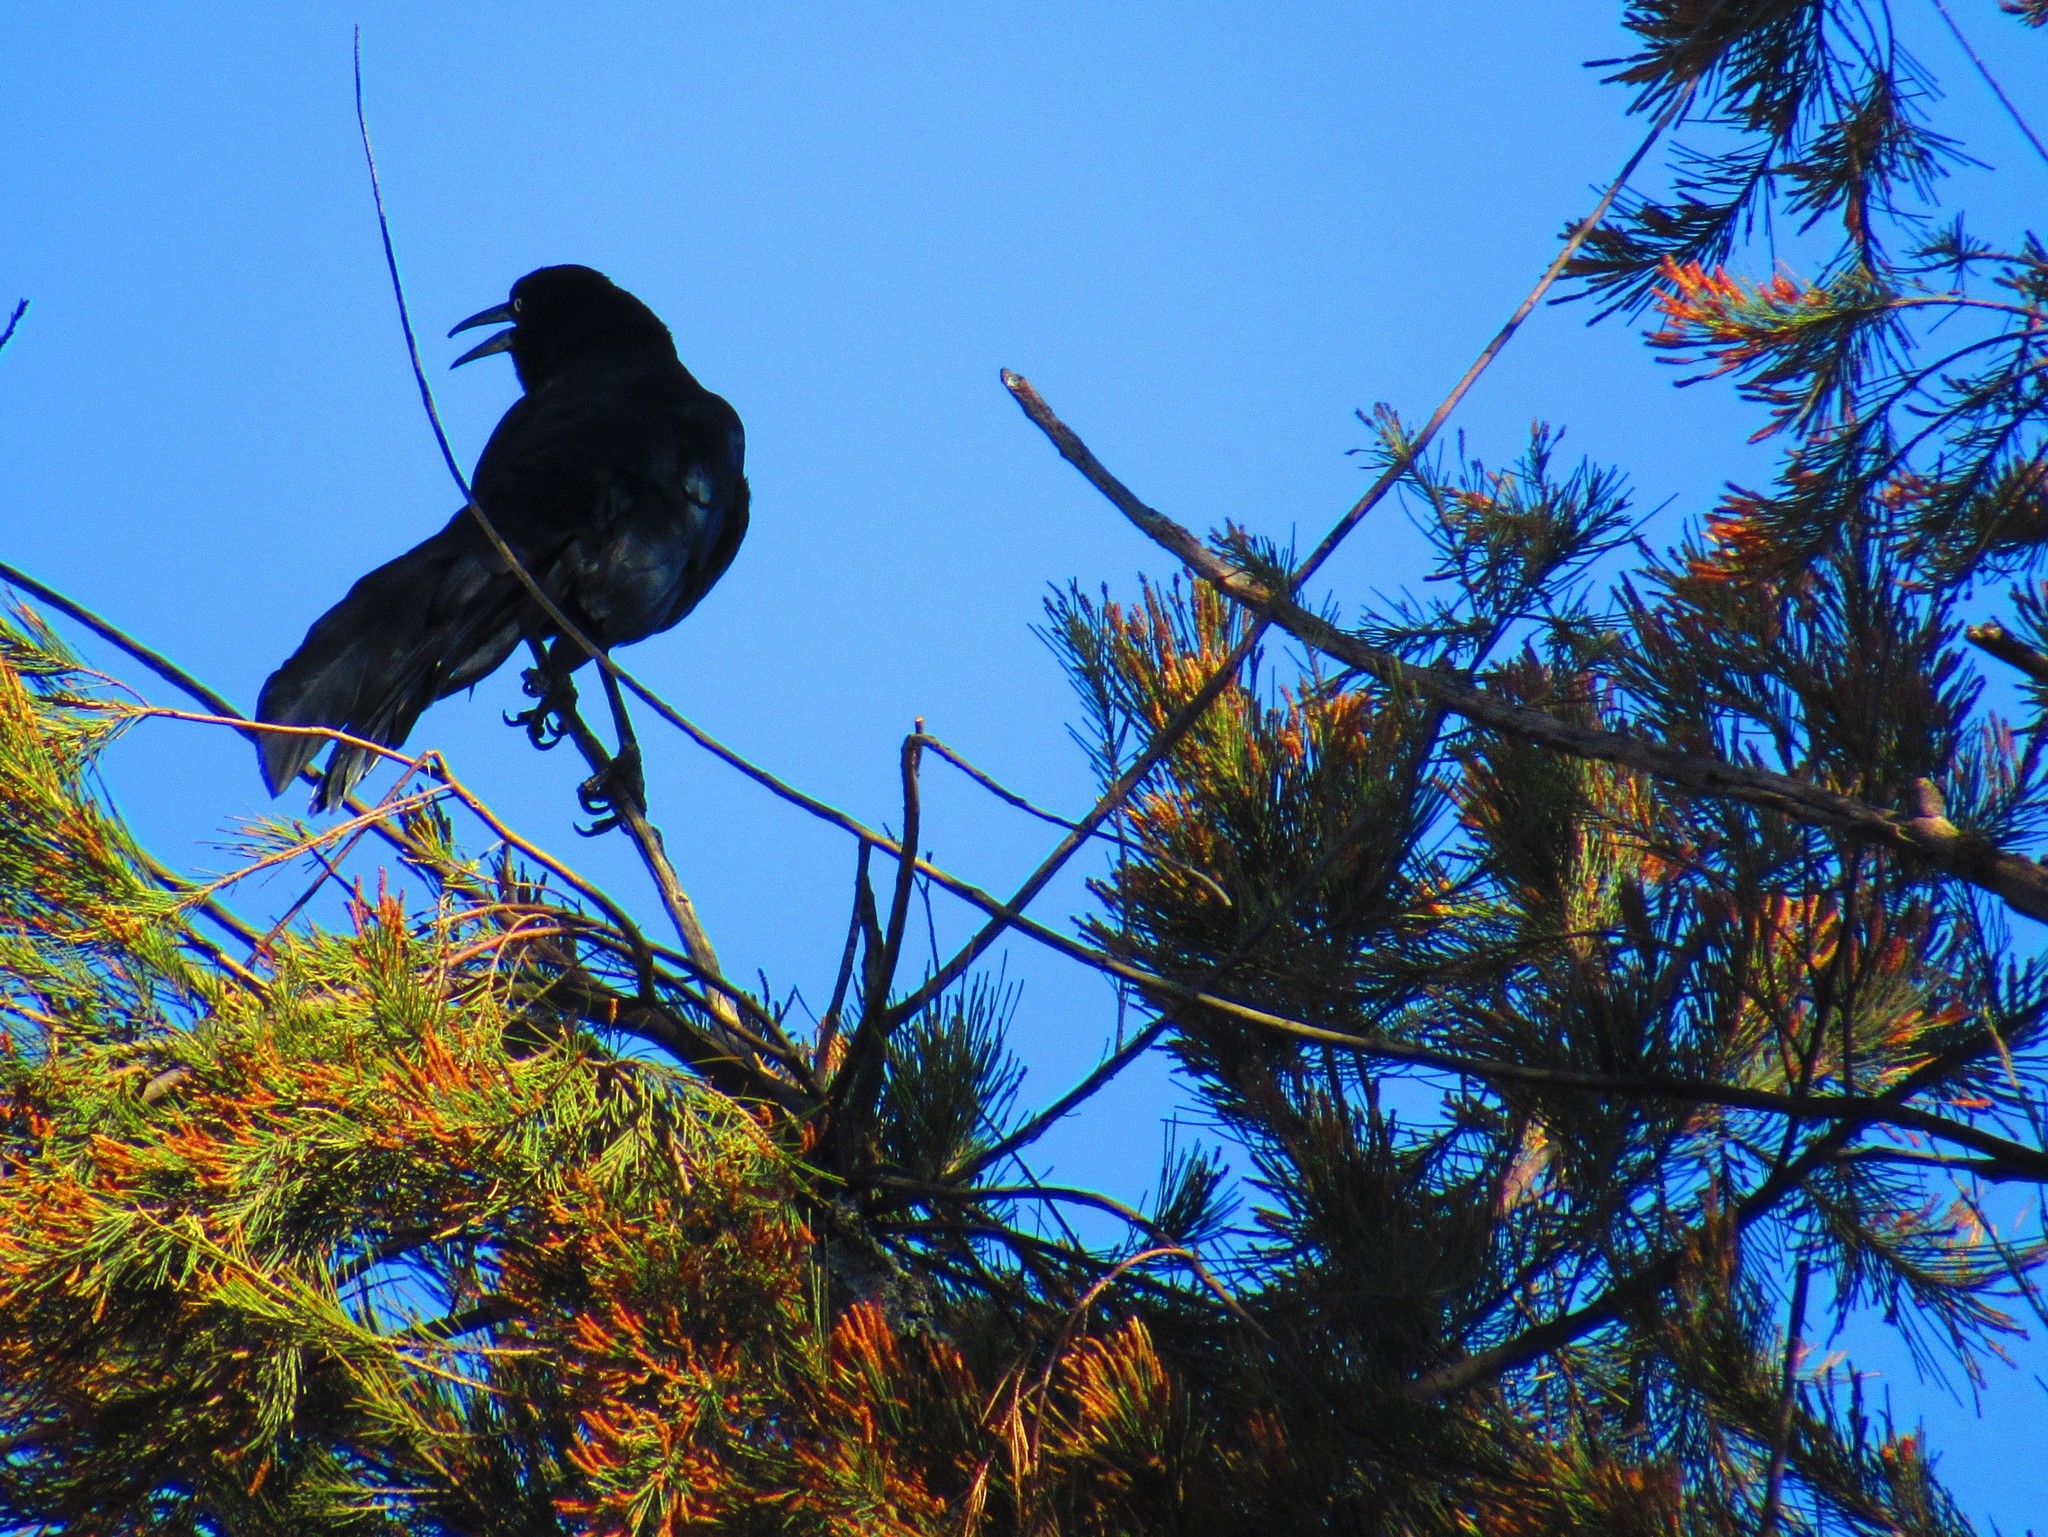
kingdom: Plantae
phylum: Tracheophyta
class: Magnoliopsida
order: Fagales
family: Casuarinaceae
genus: Casuarina
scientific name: Casuarina equisetifolia
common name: Beach sheoak
